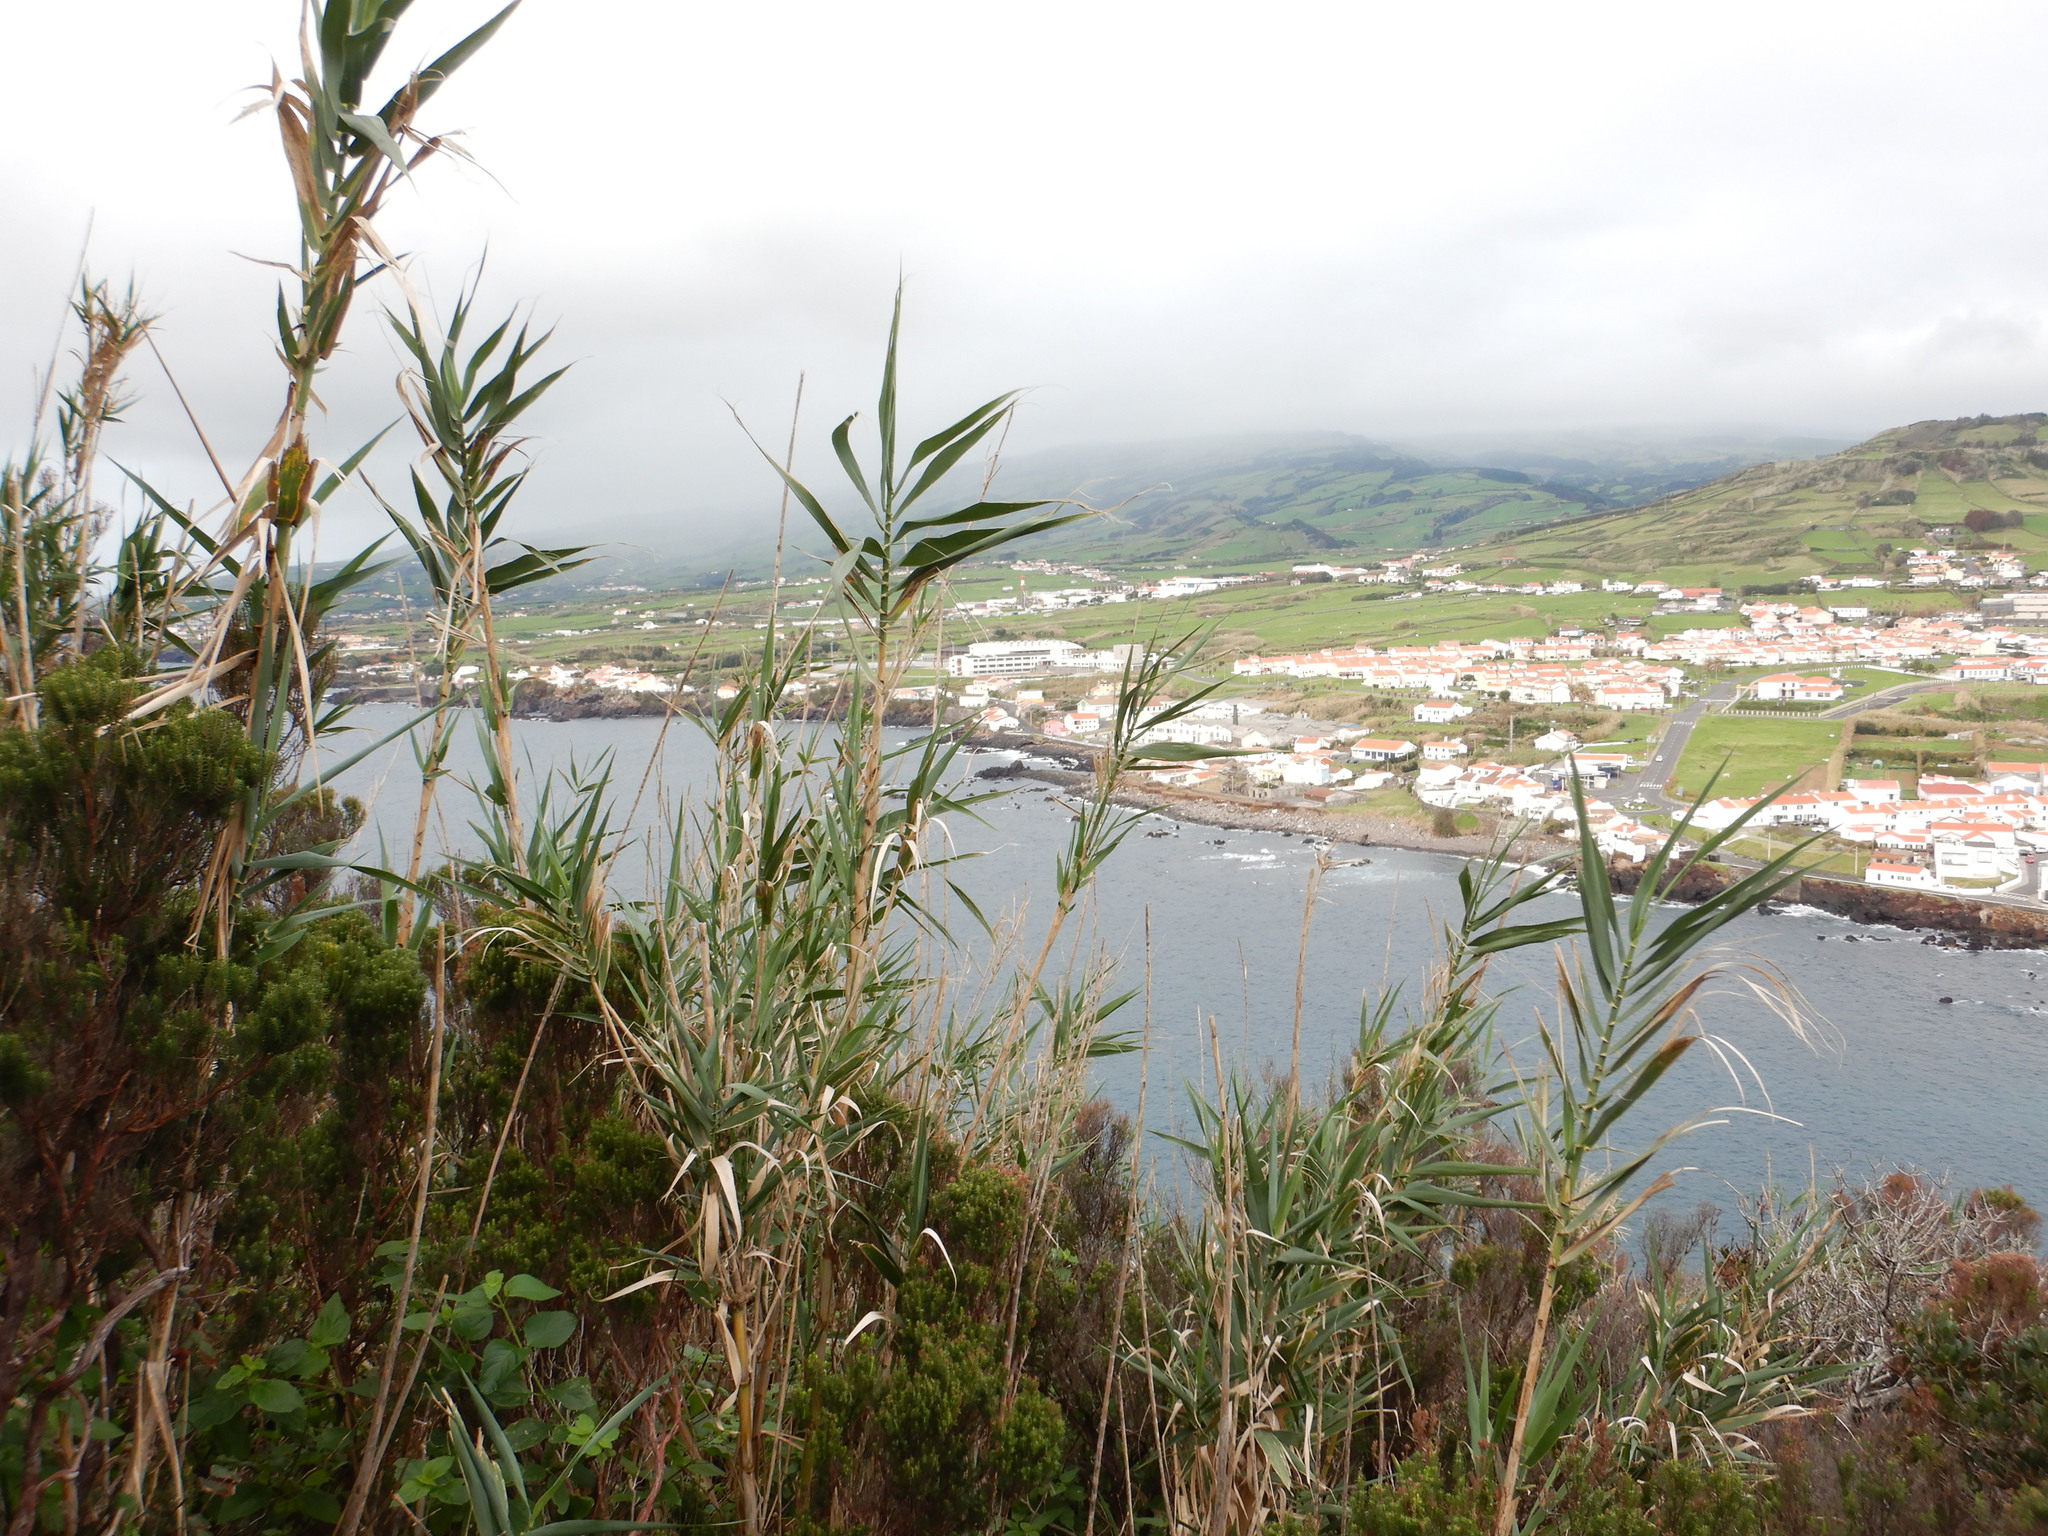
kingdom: Plantae
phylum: Tracheophyta
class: Liliopsida
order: Poales
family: Poaceae
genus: Arundo
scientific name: Arundo donax
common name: Giant reed
